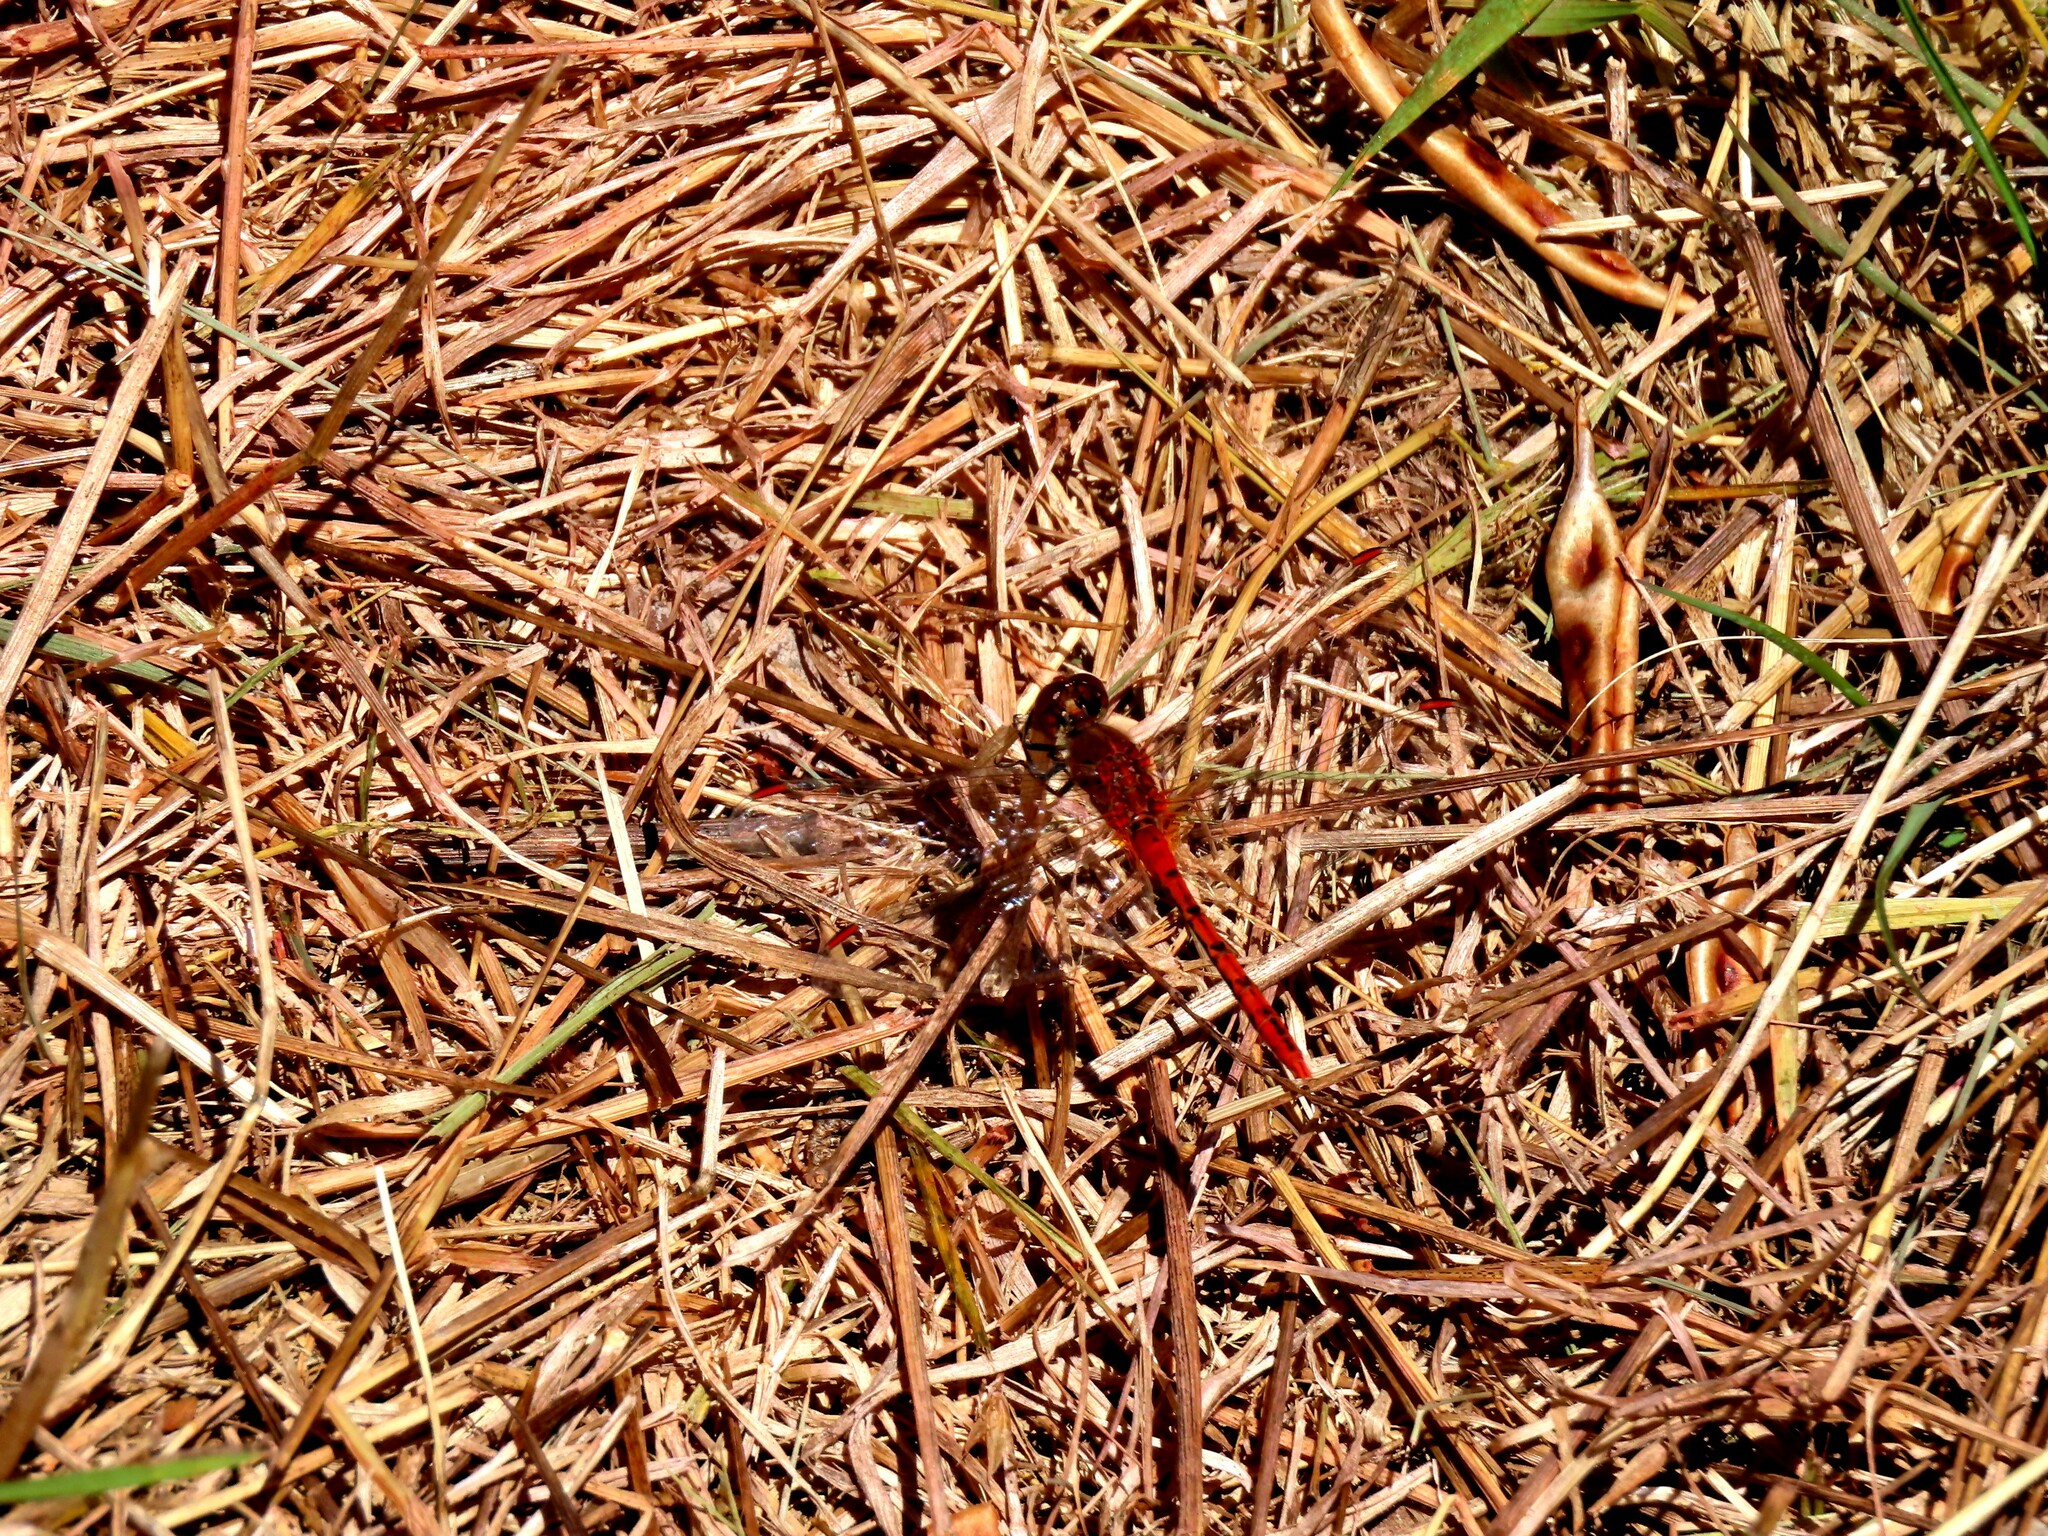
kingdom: Animalia
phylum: Arthropoda
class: Insecta
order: Odonata
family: Libellulidae
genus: Diplacodes
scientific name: Diplacodes bipunctata
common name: Red percher dragonfly
